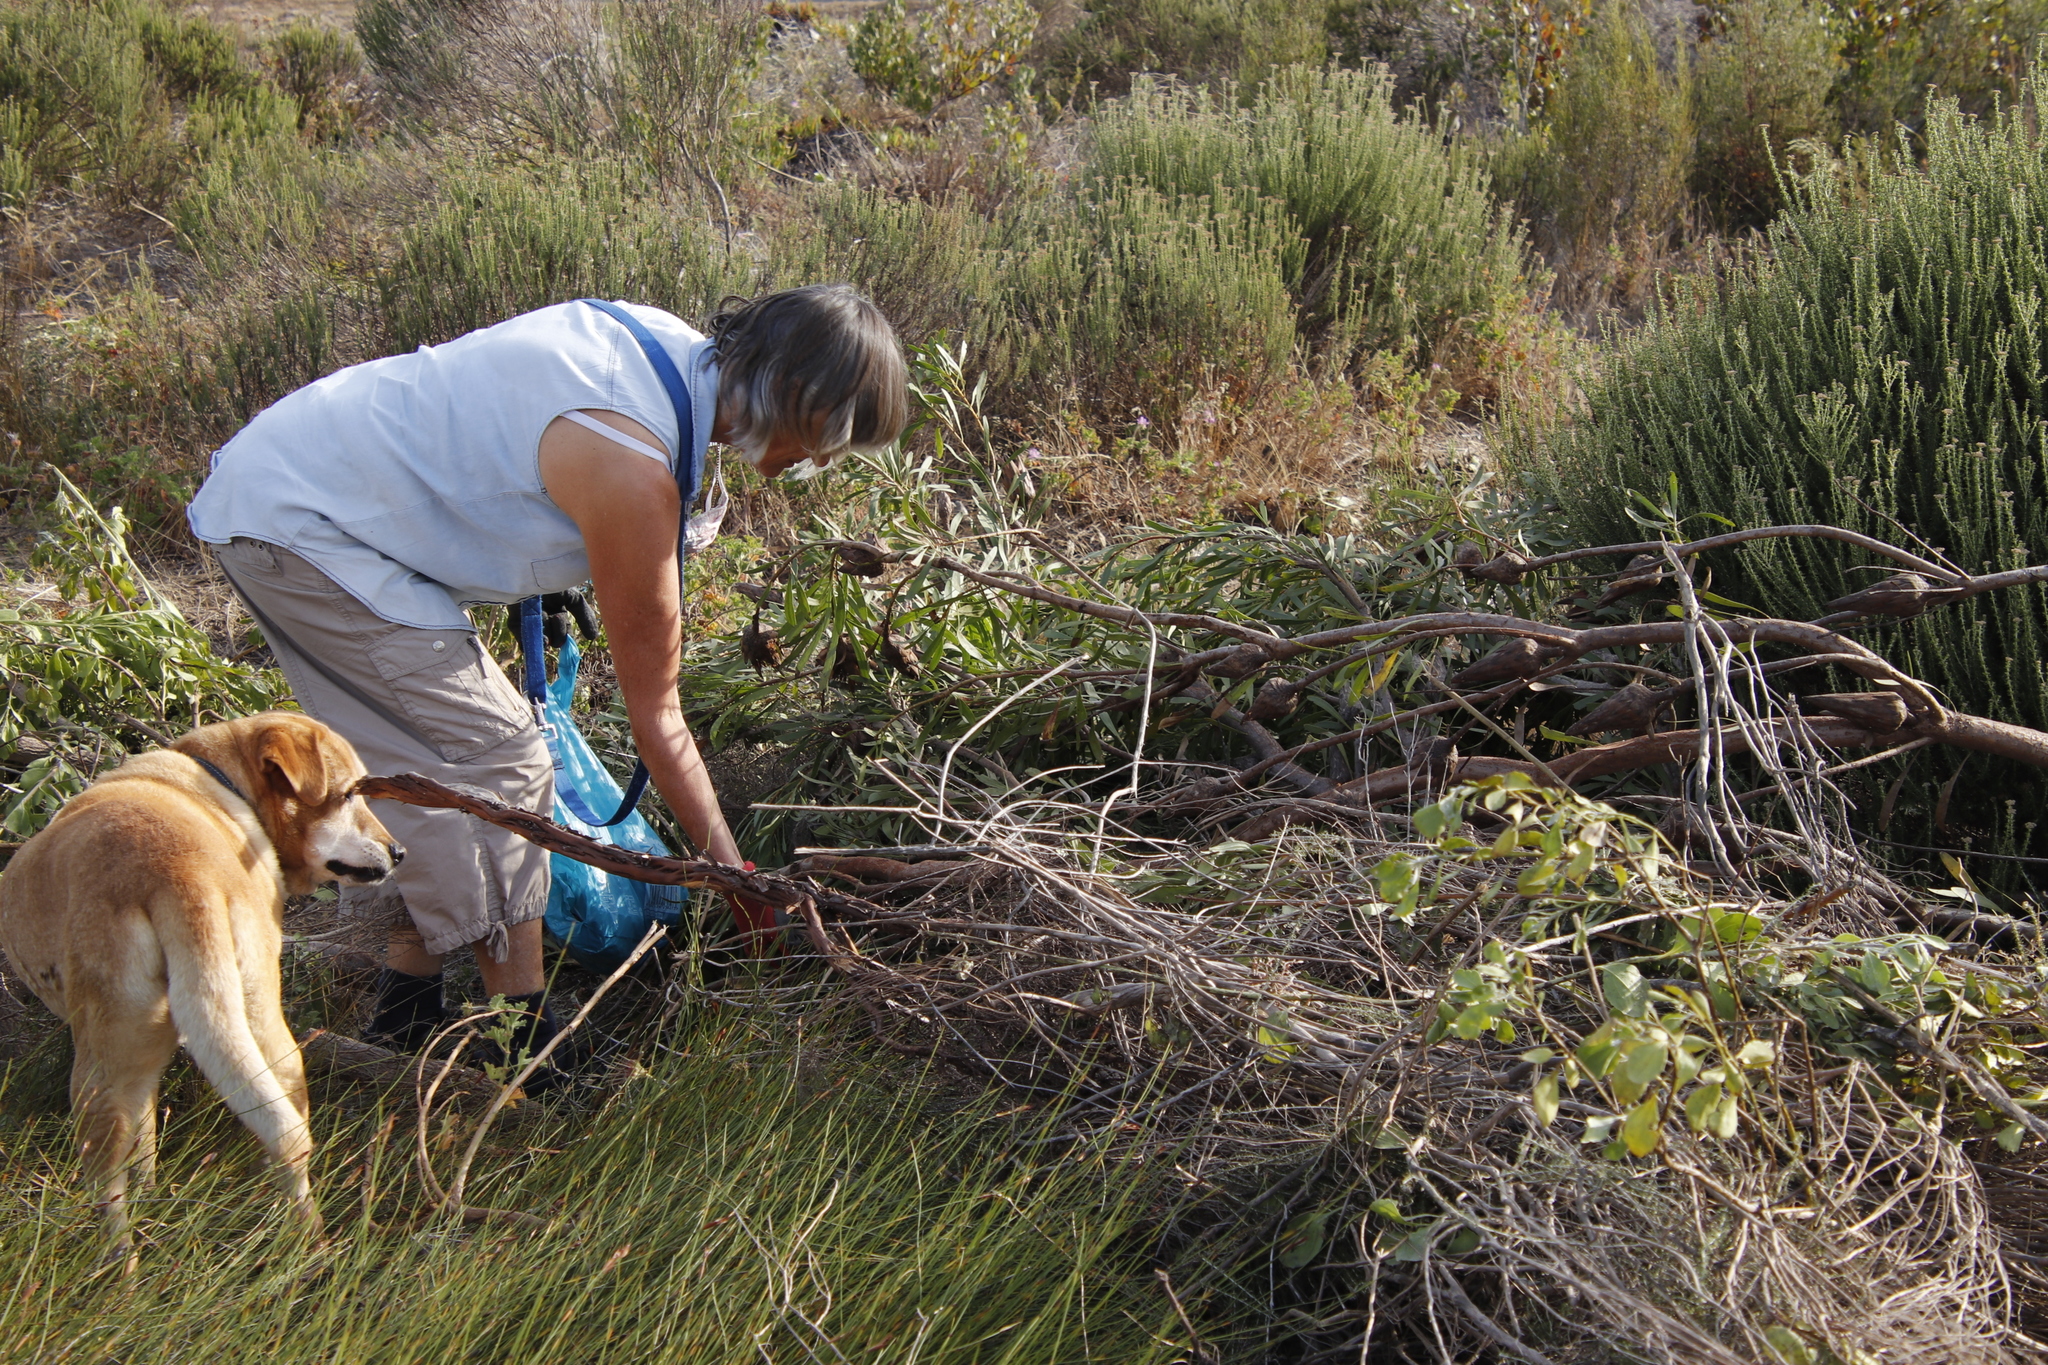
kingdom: Plantae
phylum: Tracheophyta
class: Magnoliopsida
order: Proteales
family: Proteaceae
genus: Protea
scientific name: Protea repens
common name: Sugarbush
